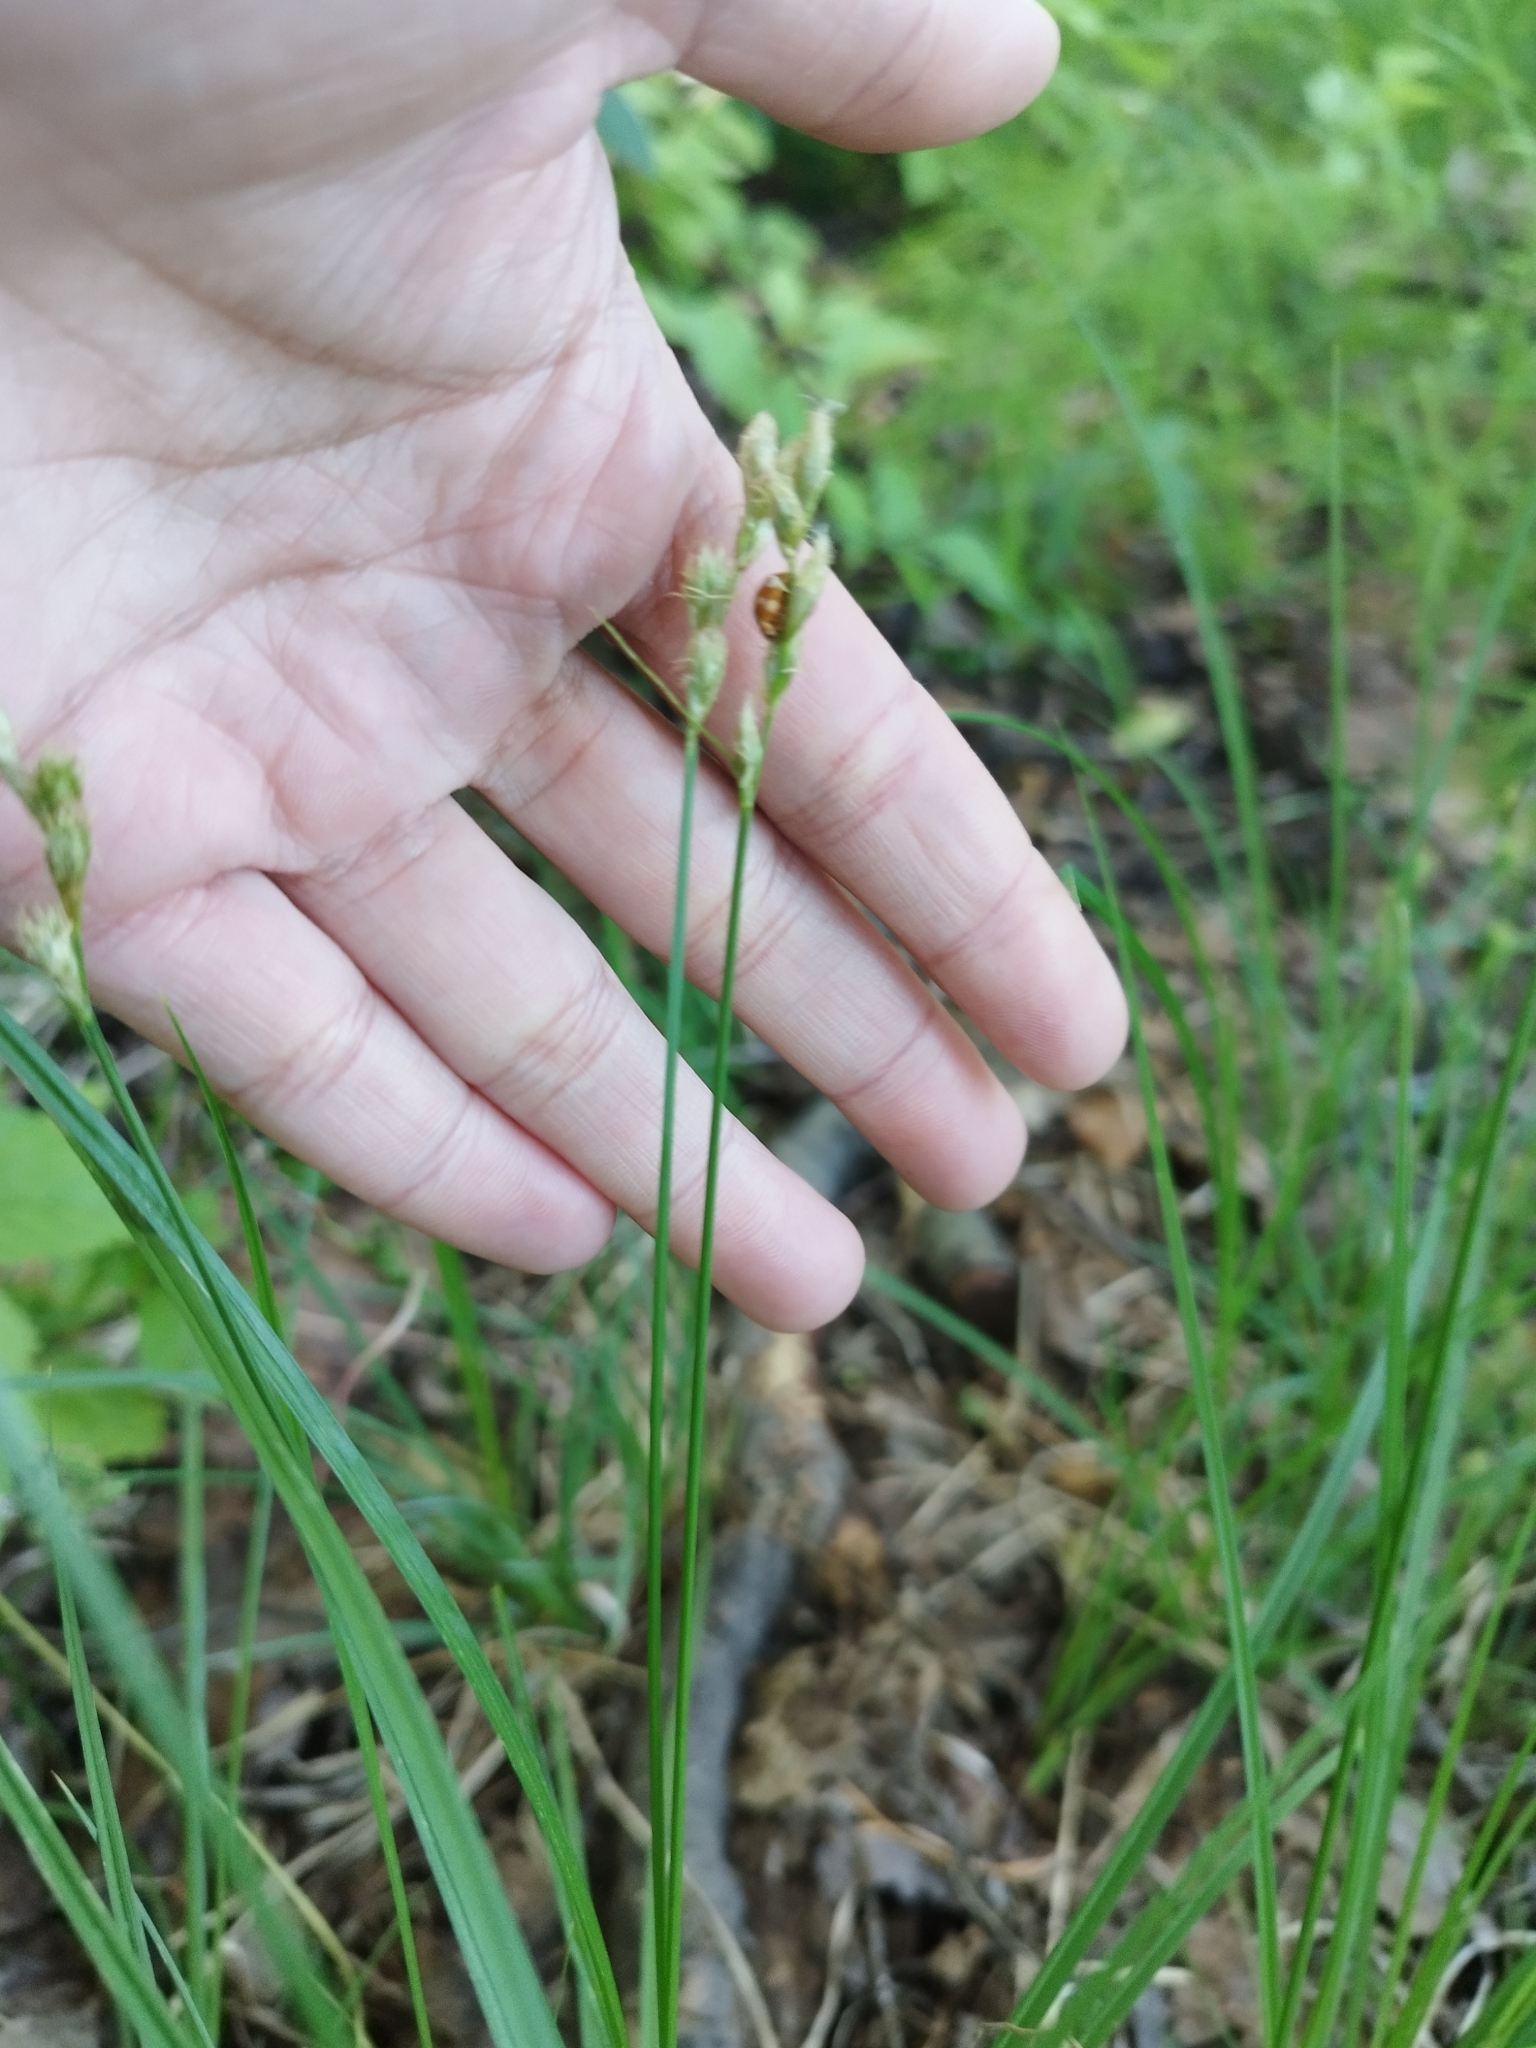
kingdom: Plantae
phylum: Tracheophyta
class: Liliopsida
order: Poales
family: Cyperaceae
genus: Carex
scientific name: Carex leporina
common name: Oval sedge
